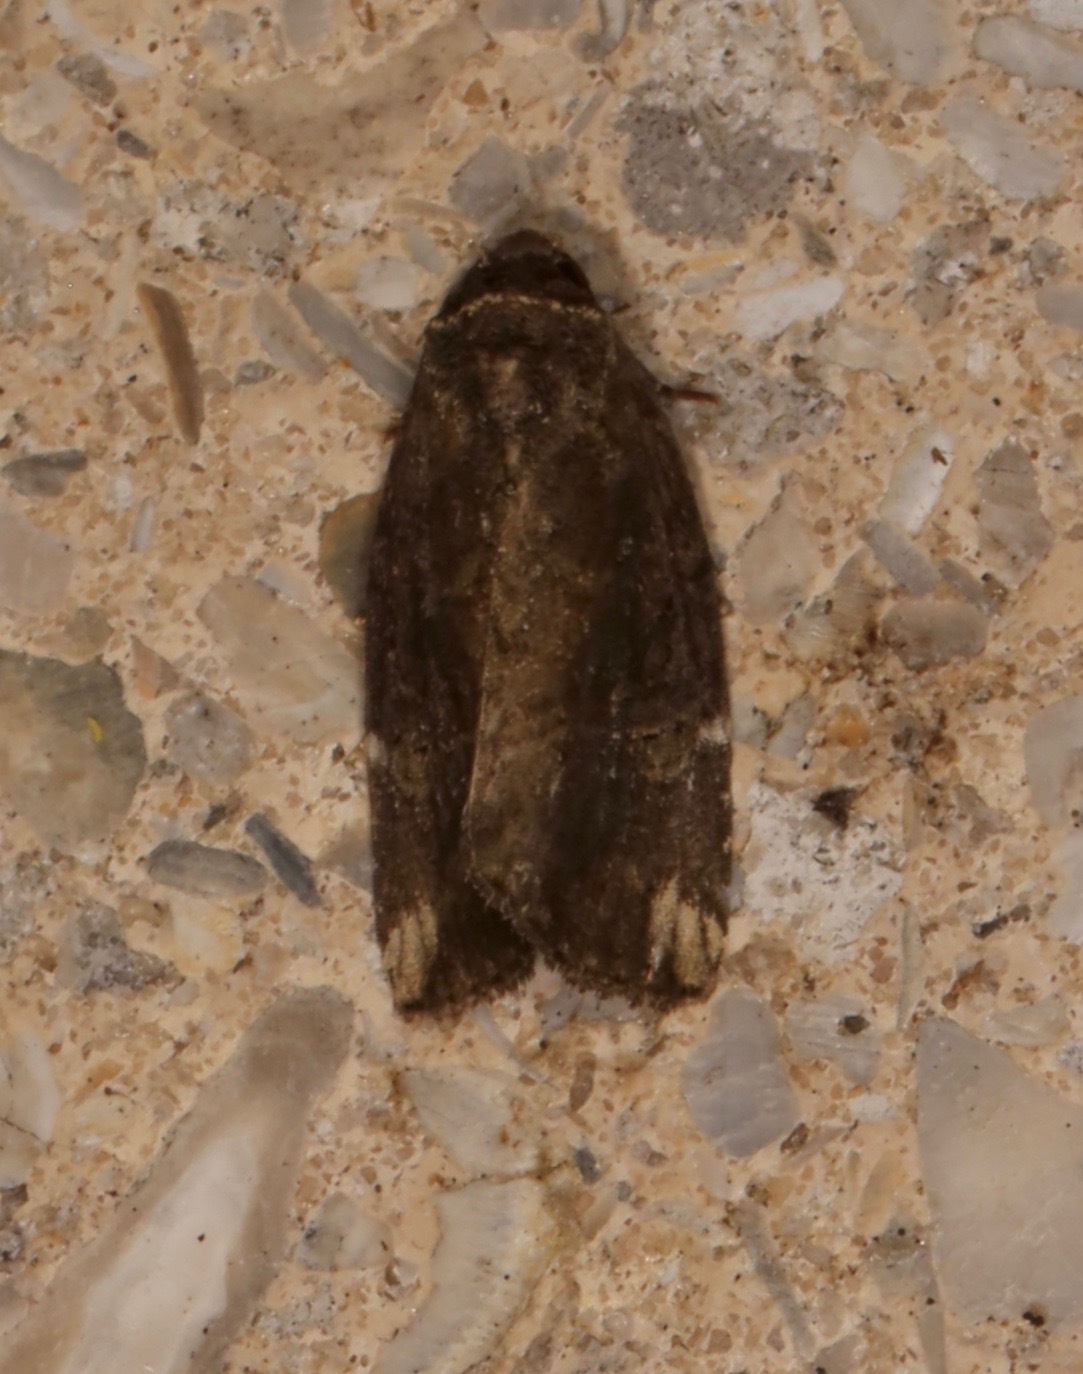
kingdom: Animalia
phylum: Arthropoda
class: Insecta
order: Lepidoptera
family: Noctuidae
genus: Elaphria
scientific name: Elaphria versicolor
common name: Fir harlequin
